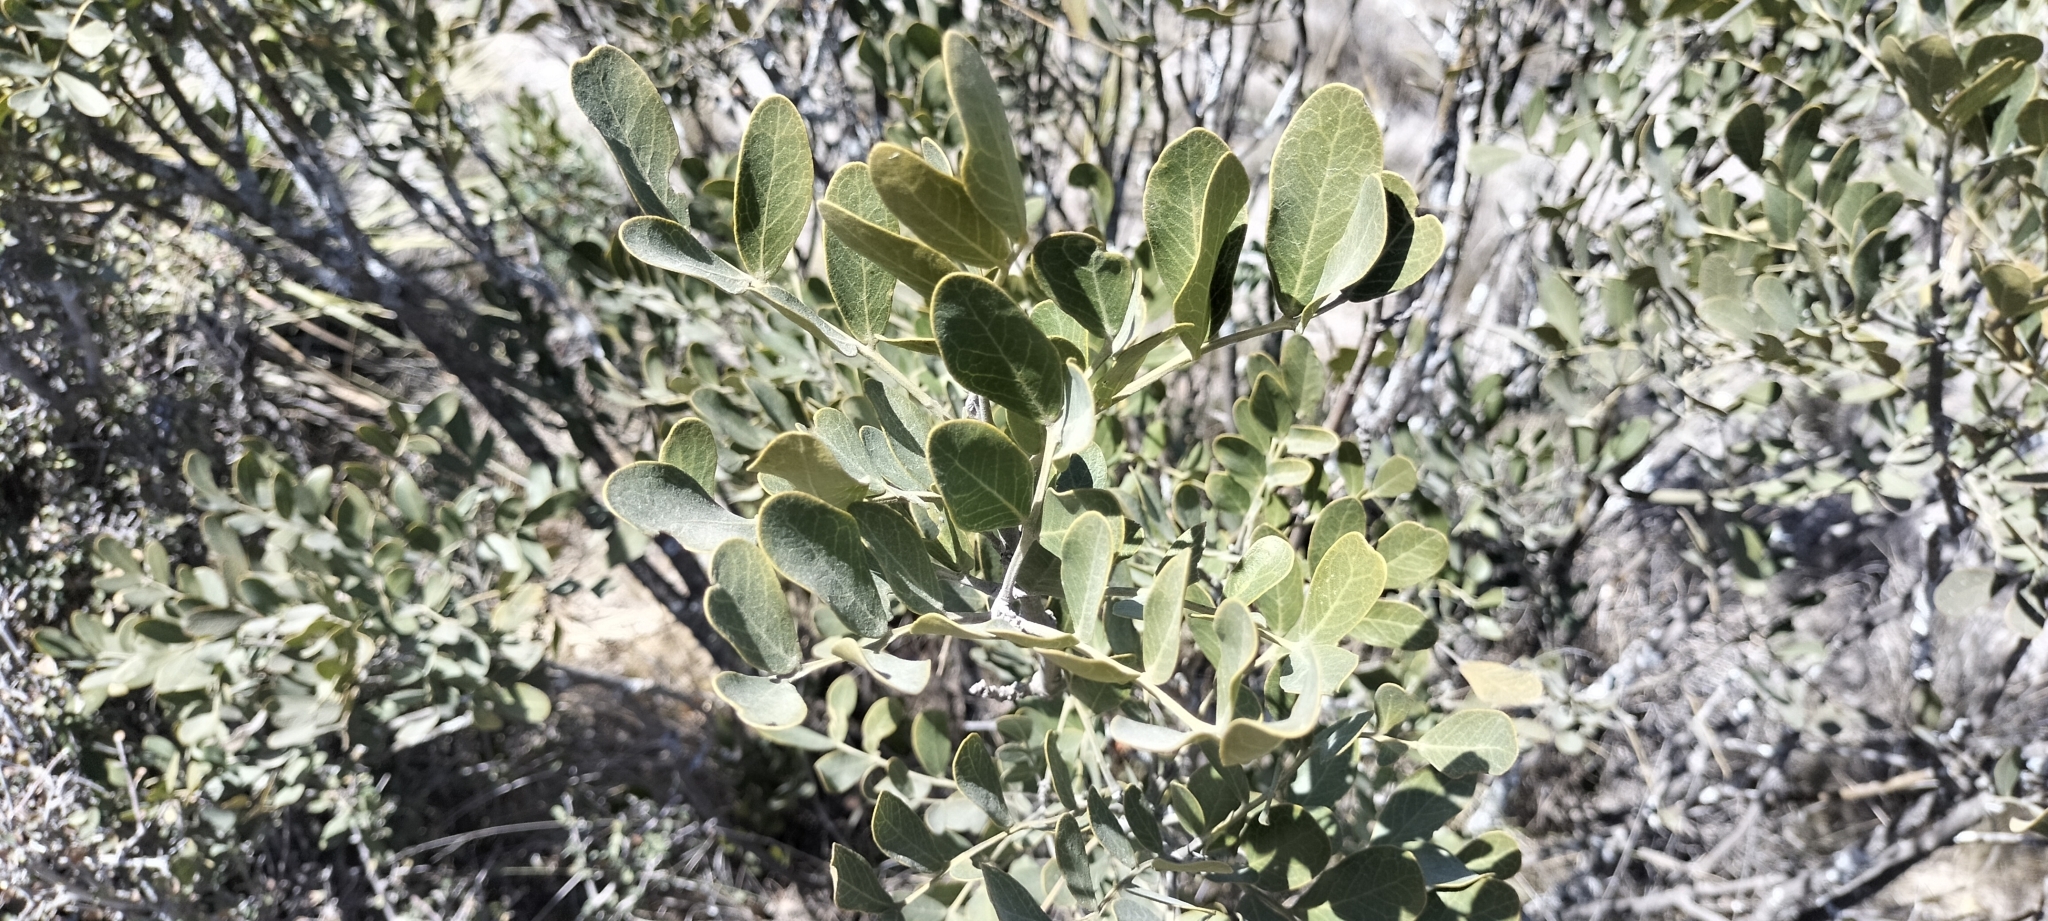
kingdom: Plantae
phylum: Tracheophyta
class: Magnoliopsida
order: Fabales
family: Fabaceae
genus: Dermatophyllum
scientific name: Dermatophyllum secundiflorum
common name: Texas-mountain-laurel
